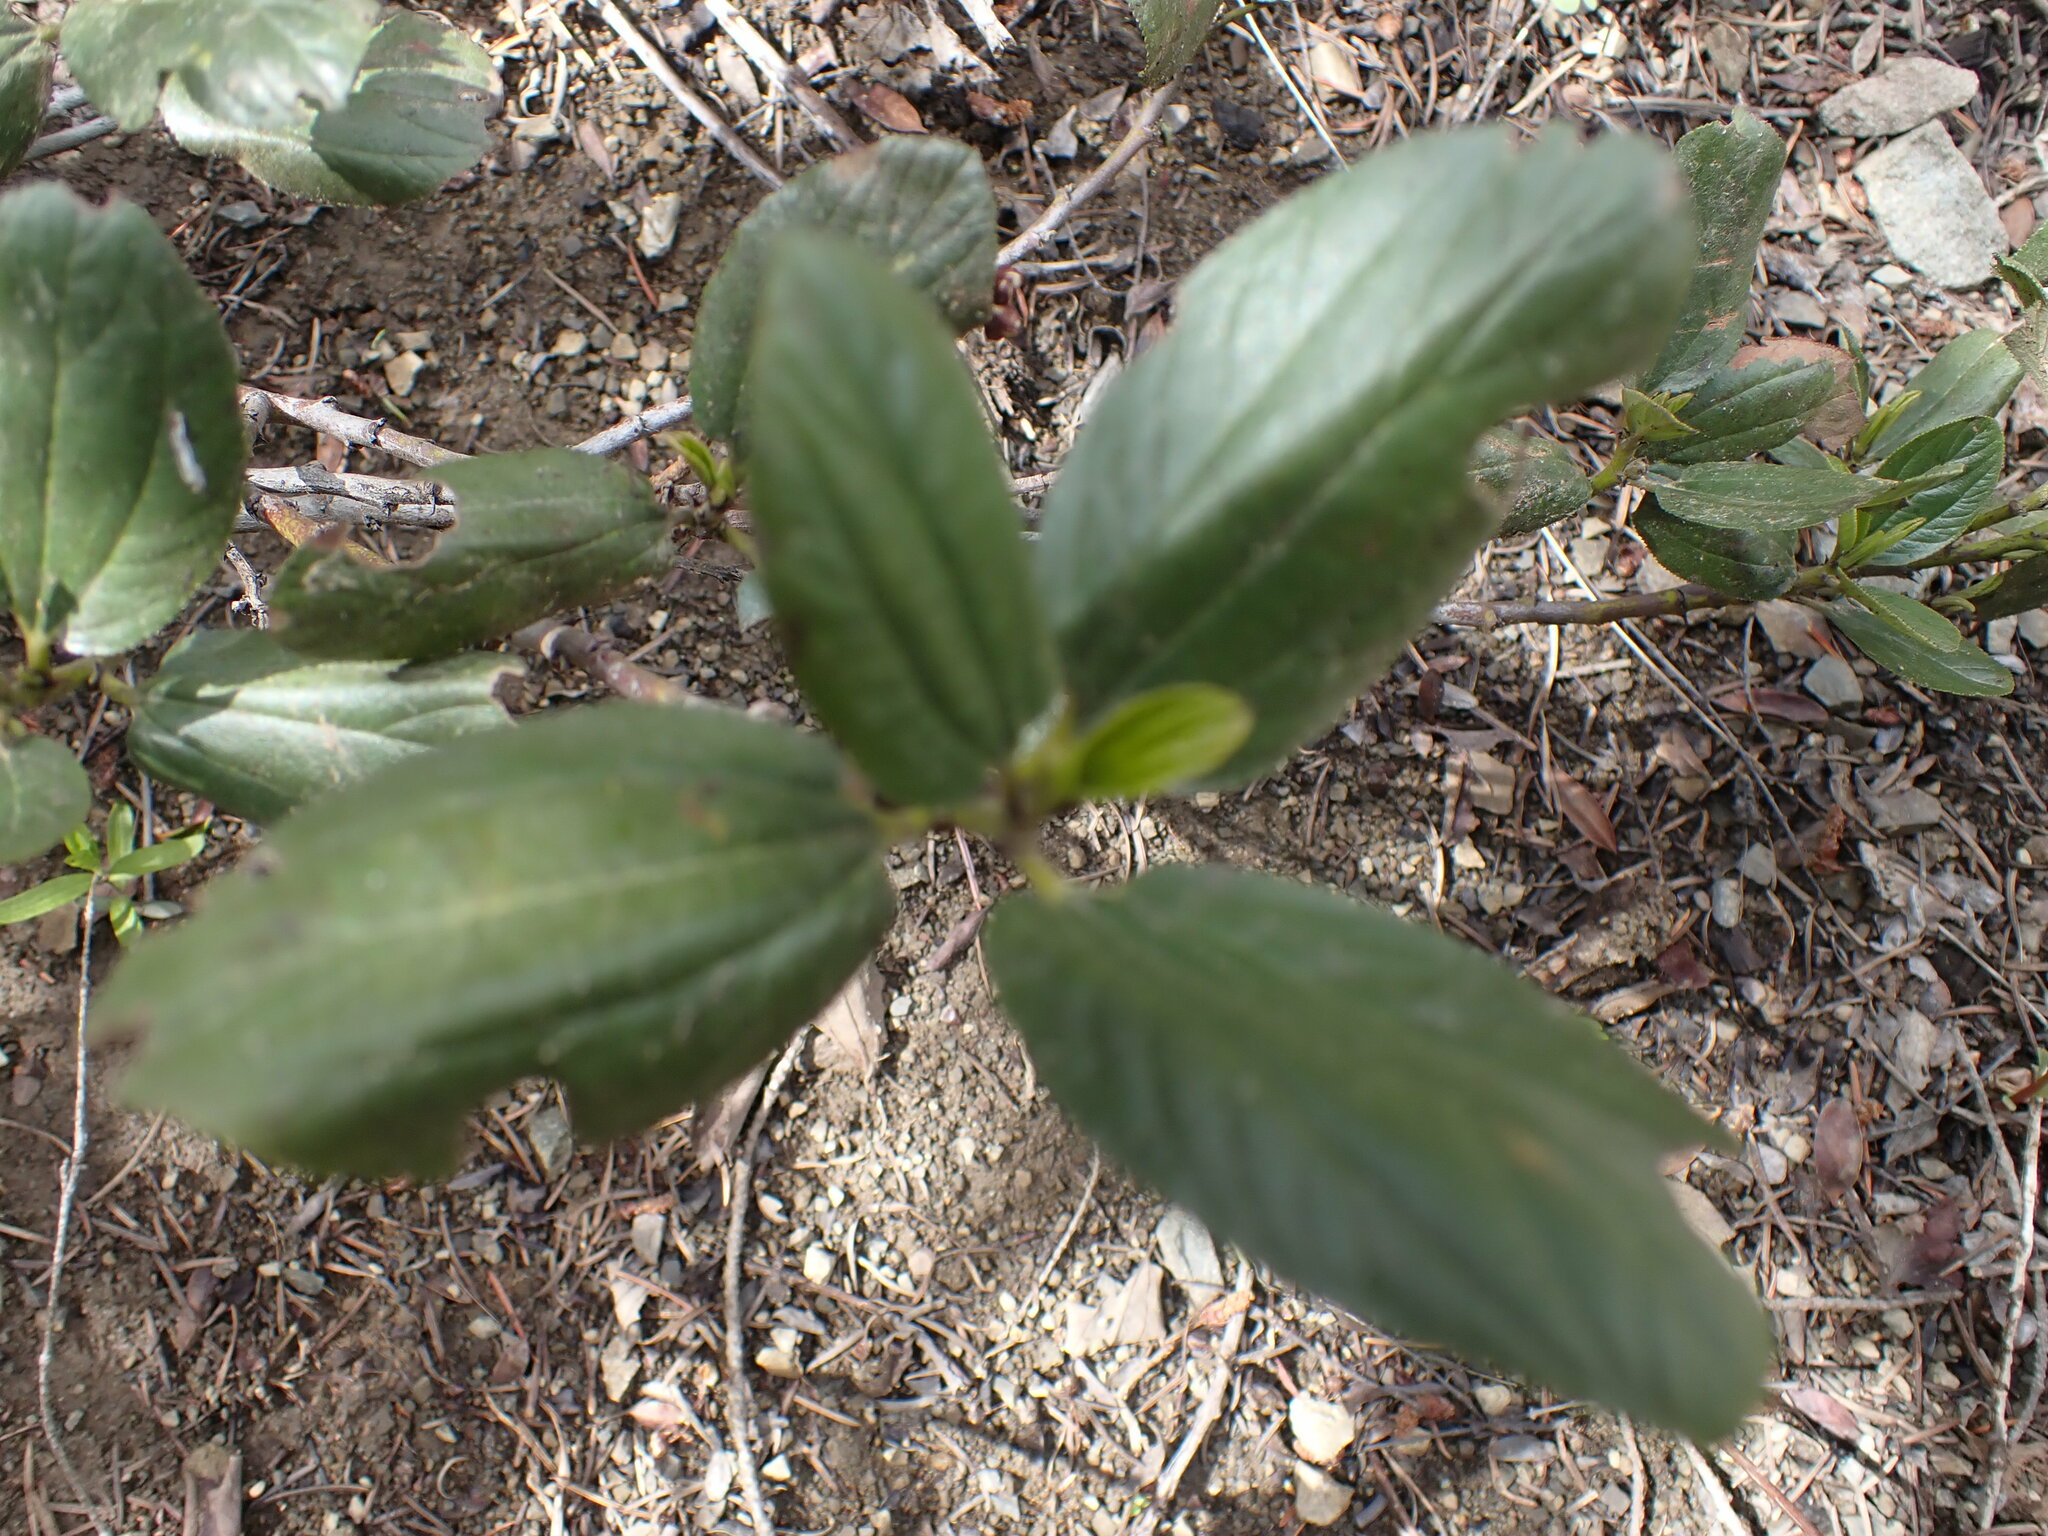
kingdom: Plantae
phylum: Tracheophyta
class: Magnoliopsida
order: Rosales
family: Rhamnaceae
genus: Ceanothus
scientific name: Ceanothus velutinus
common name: Snowbrush
